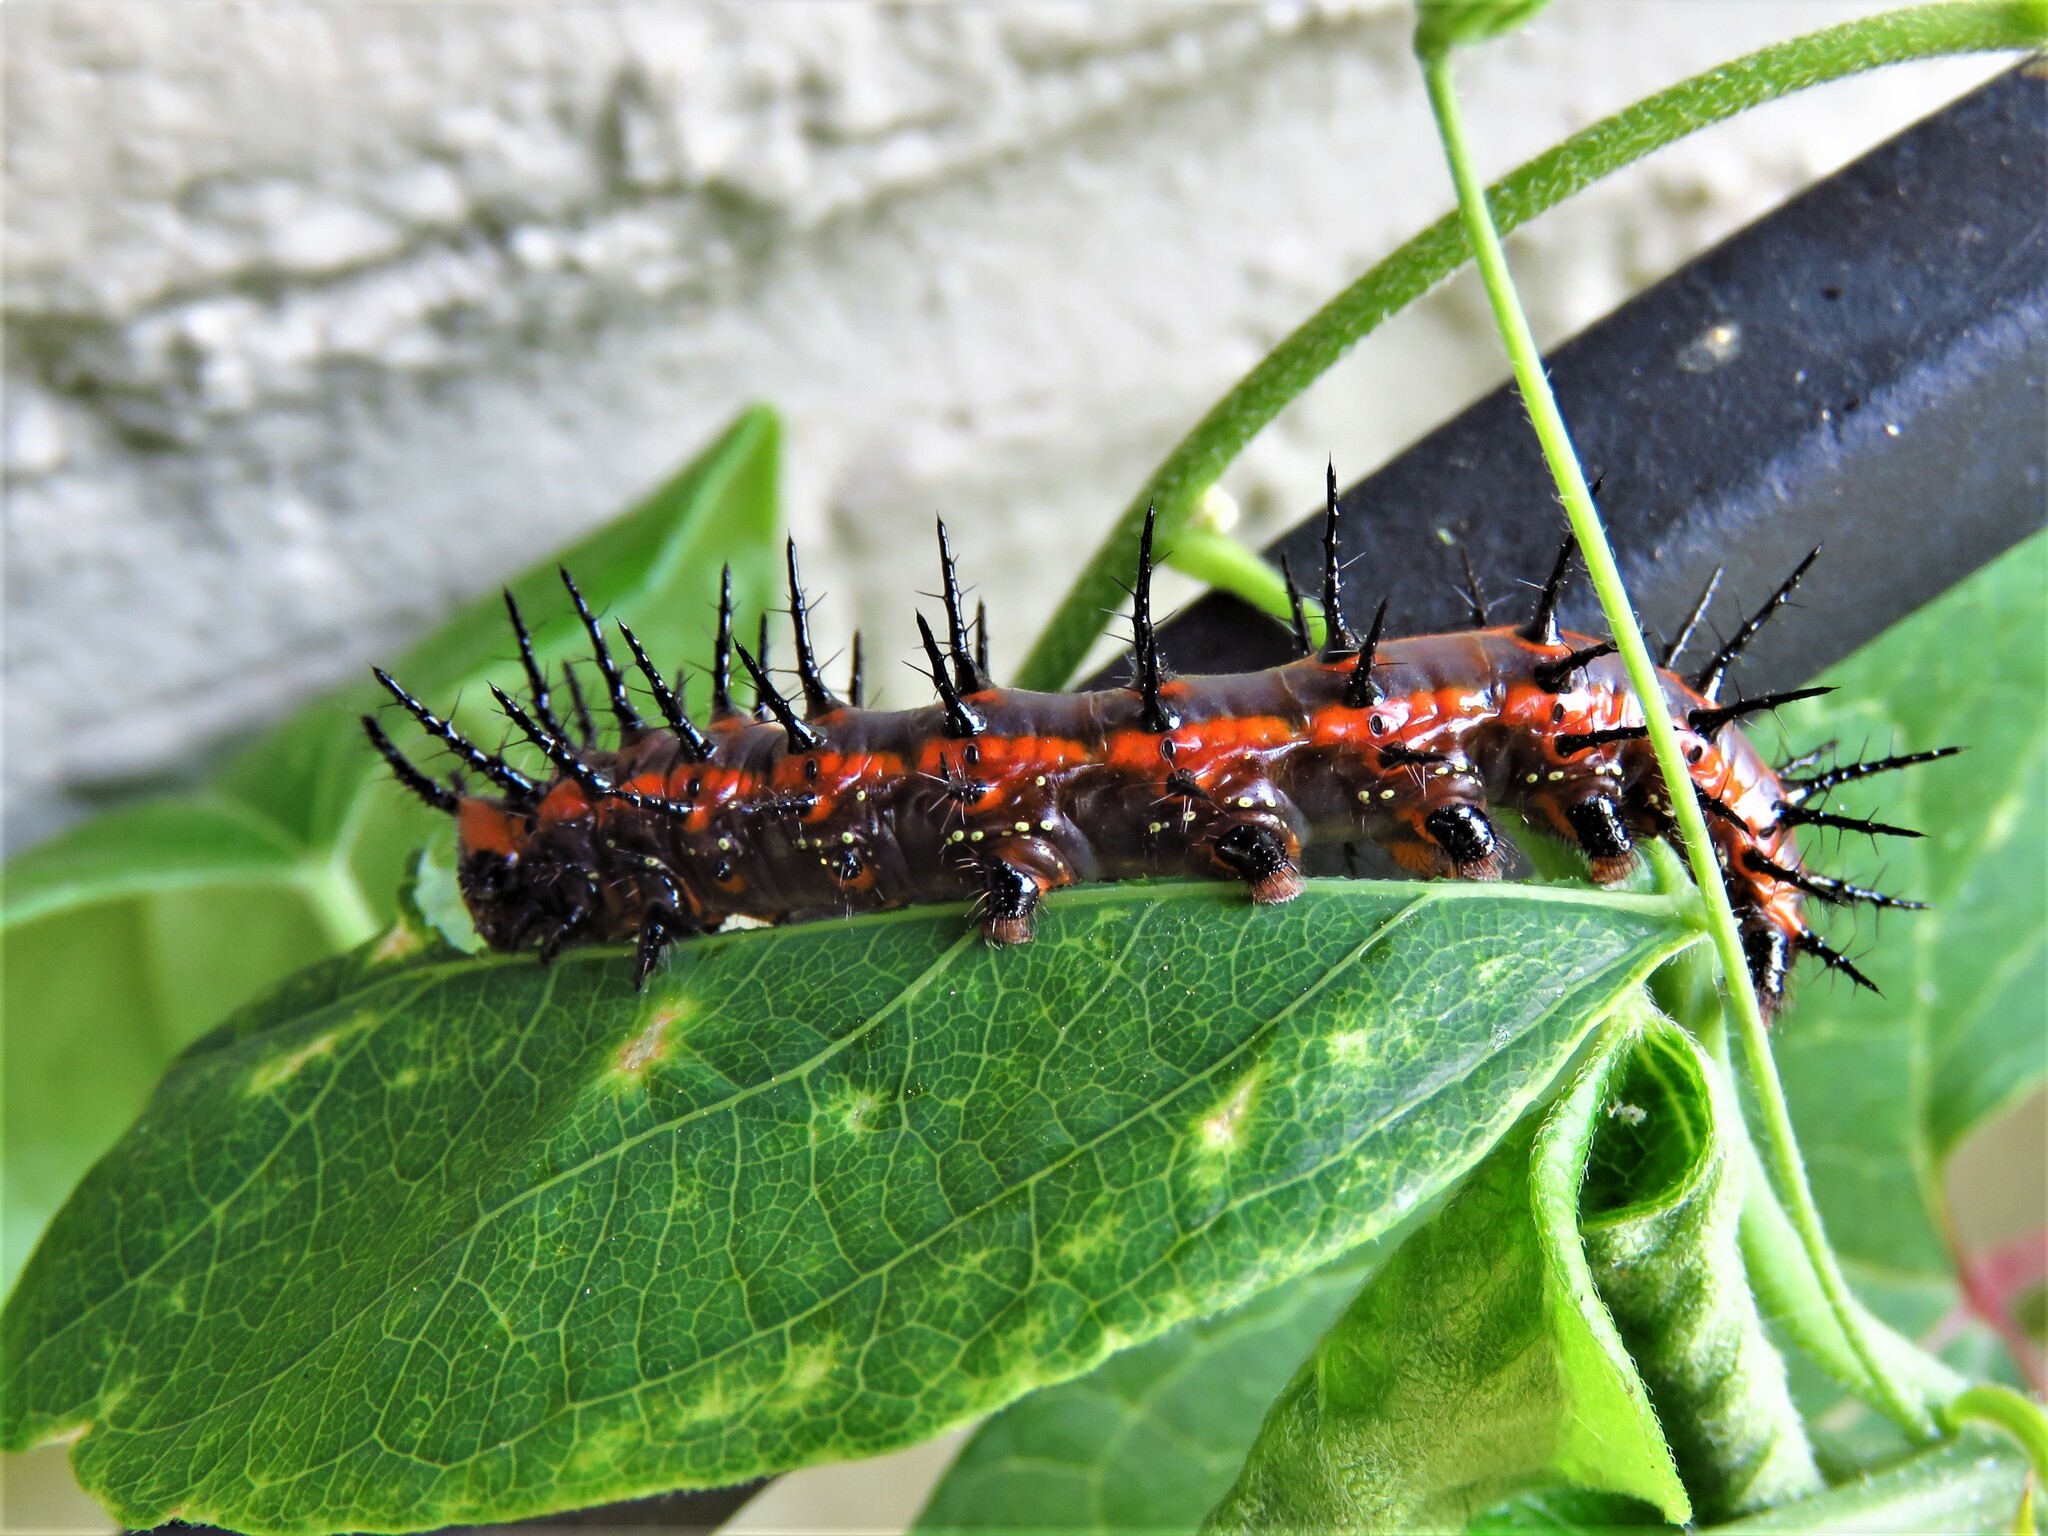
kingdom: Animalia
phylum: Arthropoda
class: Insecta
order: Lepidoptera
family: Nymphalidae
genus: Dione
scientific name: Dione vanillae
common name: Gulf fritillary
